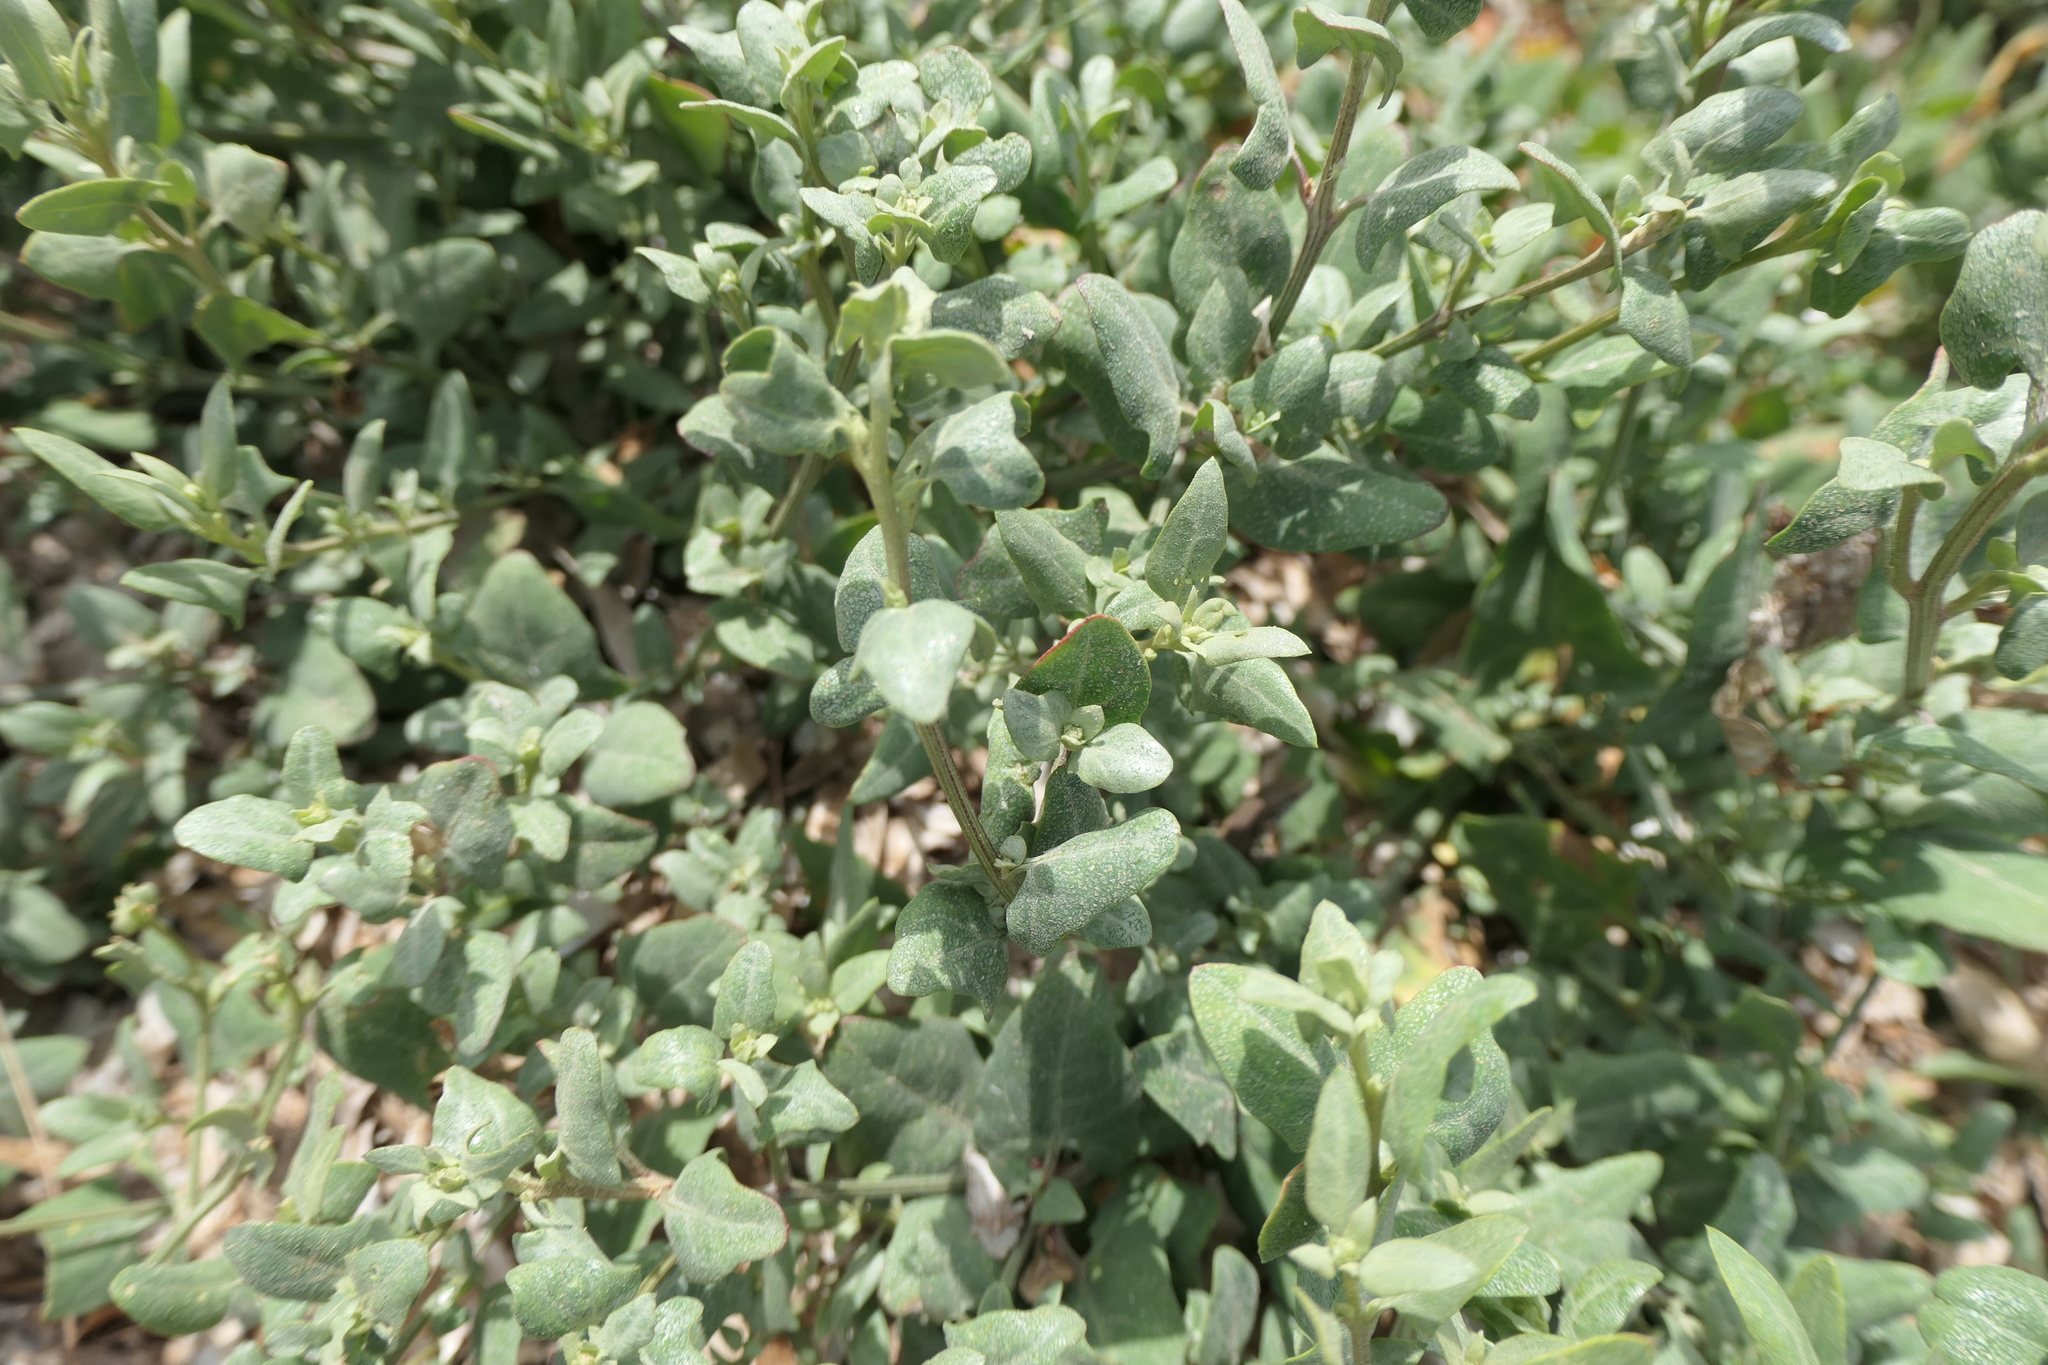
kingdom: Plantae
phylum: Tracheophyta
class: Magnoliopsida
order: Caryophyllales
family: Amaranthaceae
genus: Atriplex
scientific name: Atriplex halimus
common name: Shrubby orache
